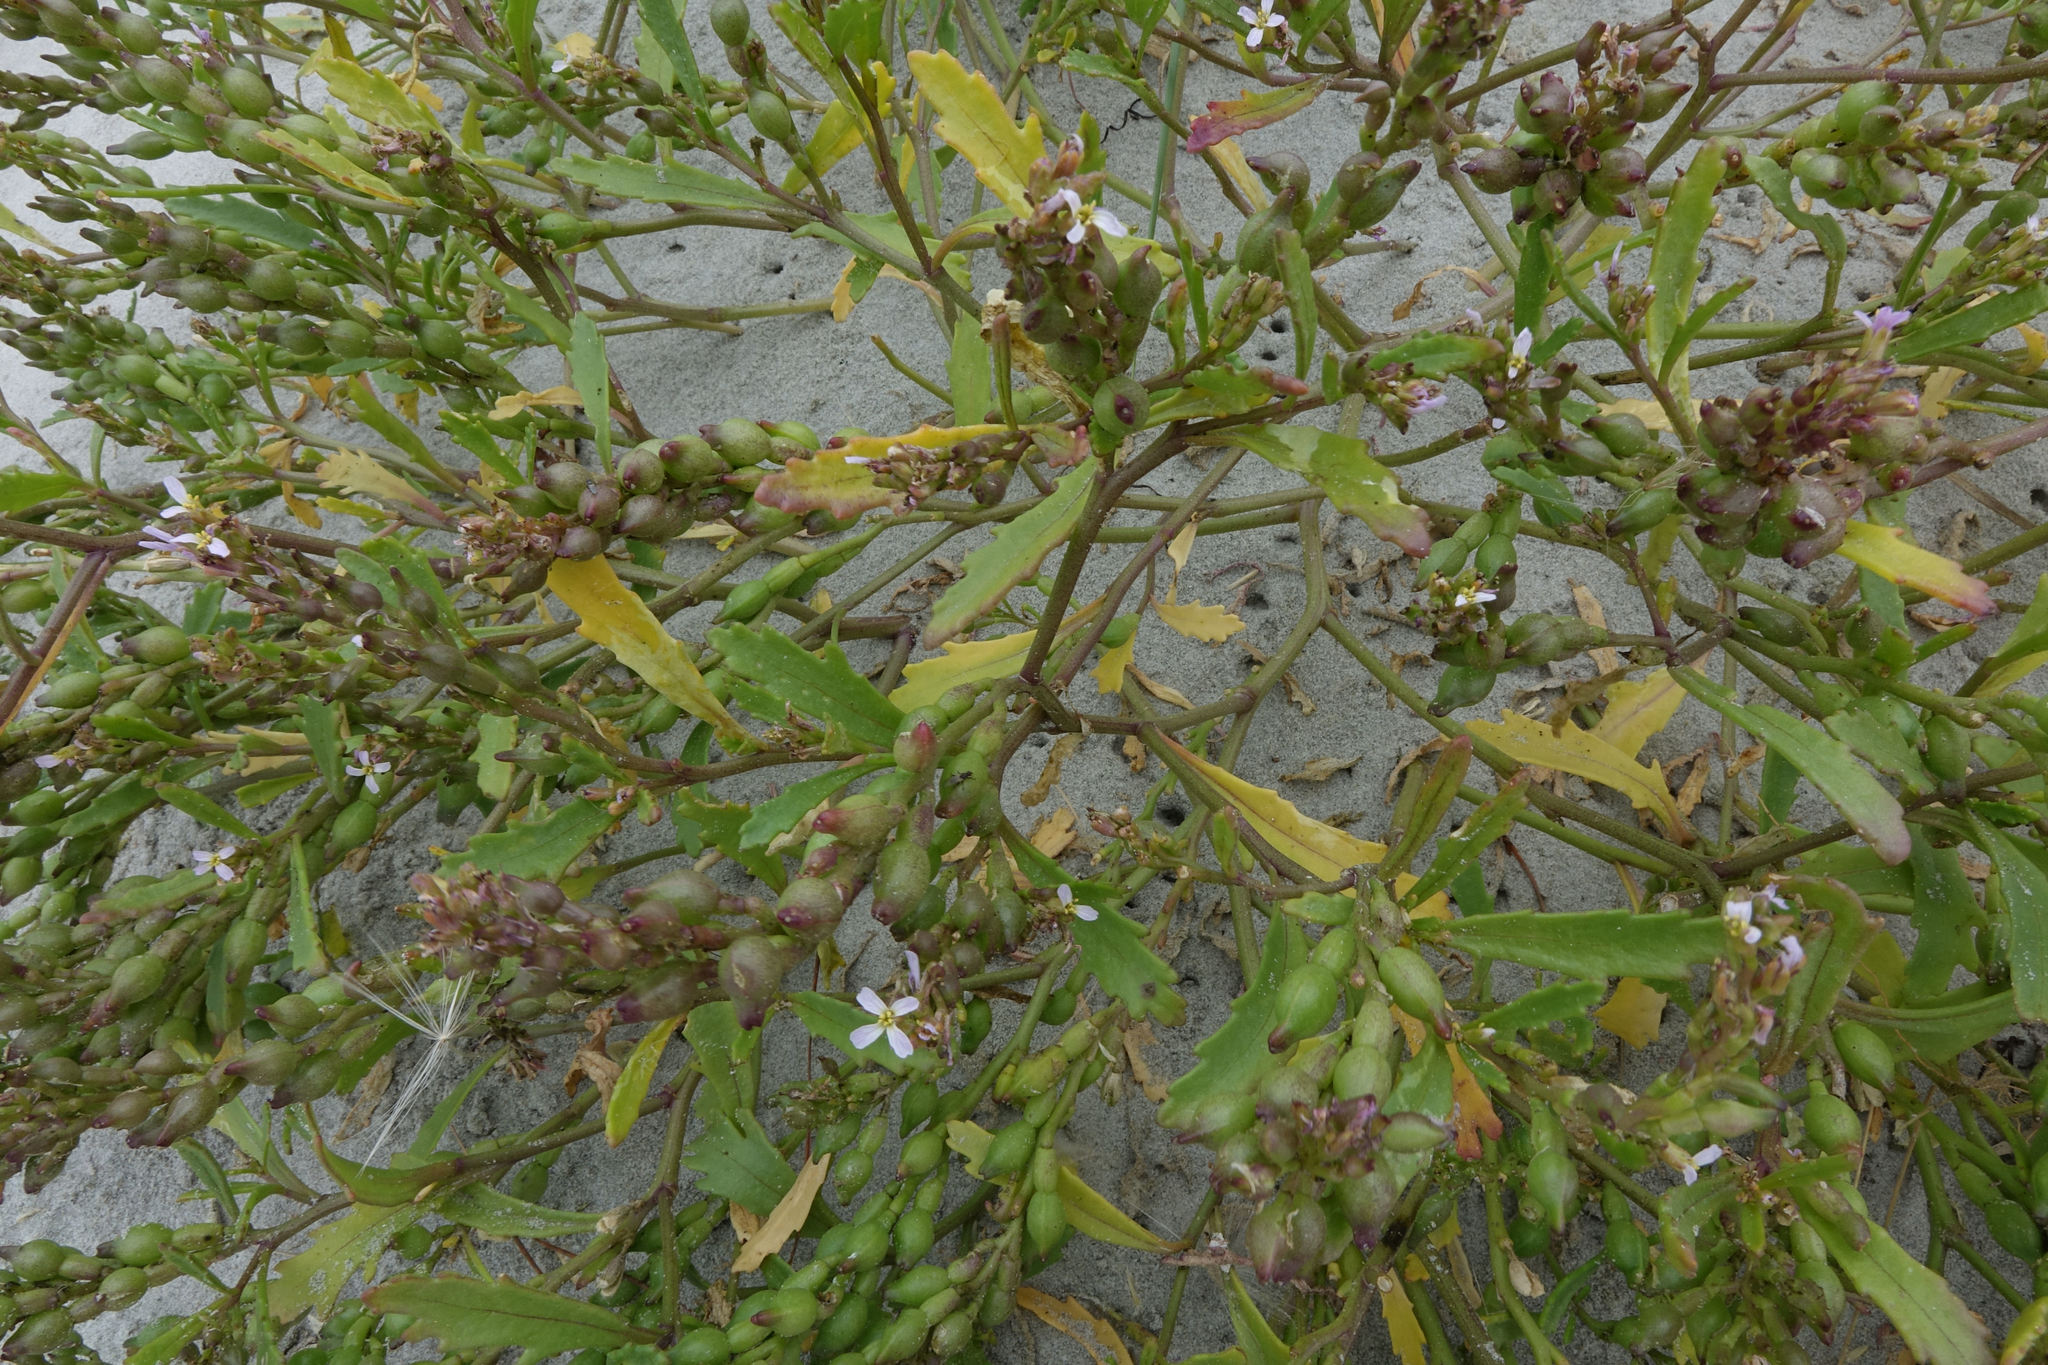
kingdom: Plantae
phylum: Tracheophyta
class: Magnoliopsida
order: Brassicales
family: Brassicaceae
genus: Cakile
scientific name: Cakile edentula
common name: American sea rocket
